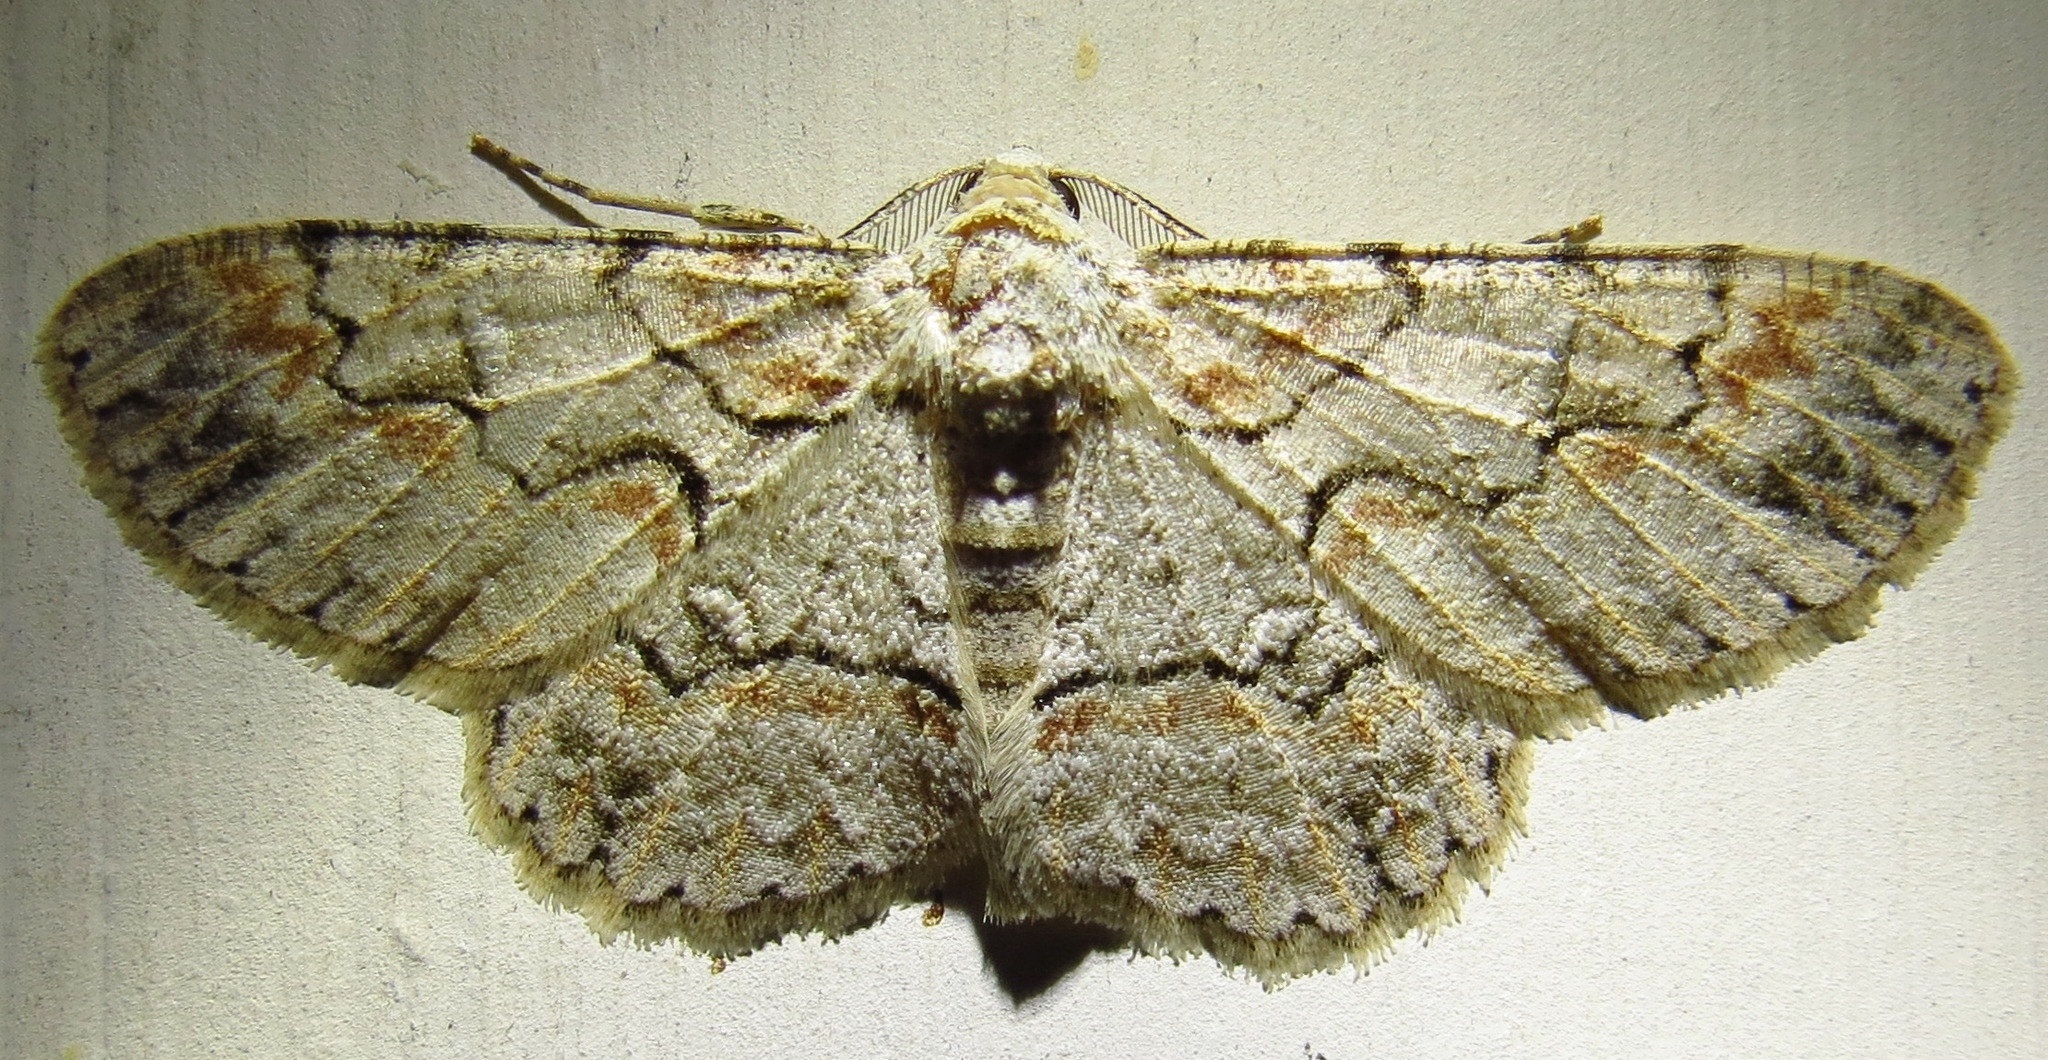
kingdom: Animalia
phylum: Arthropoda
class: Insecta
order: Lepidoptera
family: Geometridae
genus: Iridopsis
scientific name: Iridopsis defectaria
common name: Brown-shaded gray
